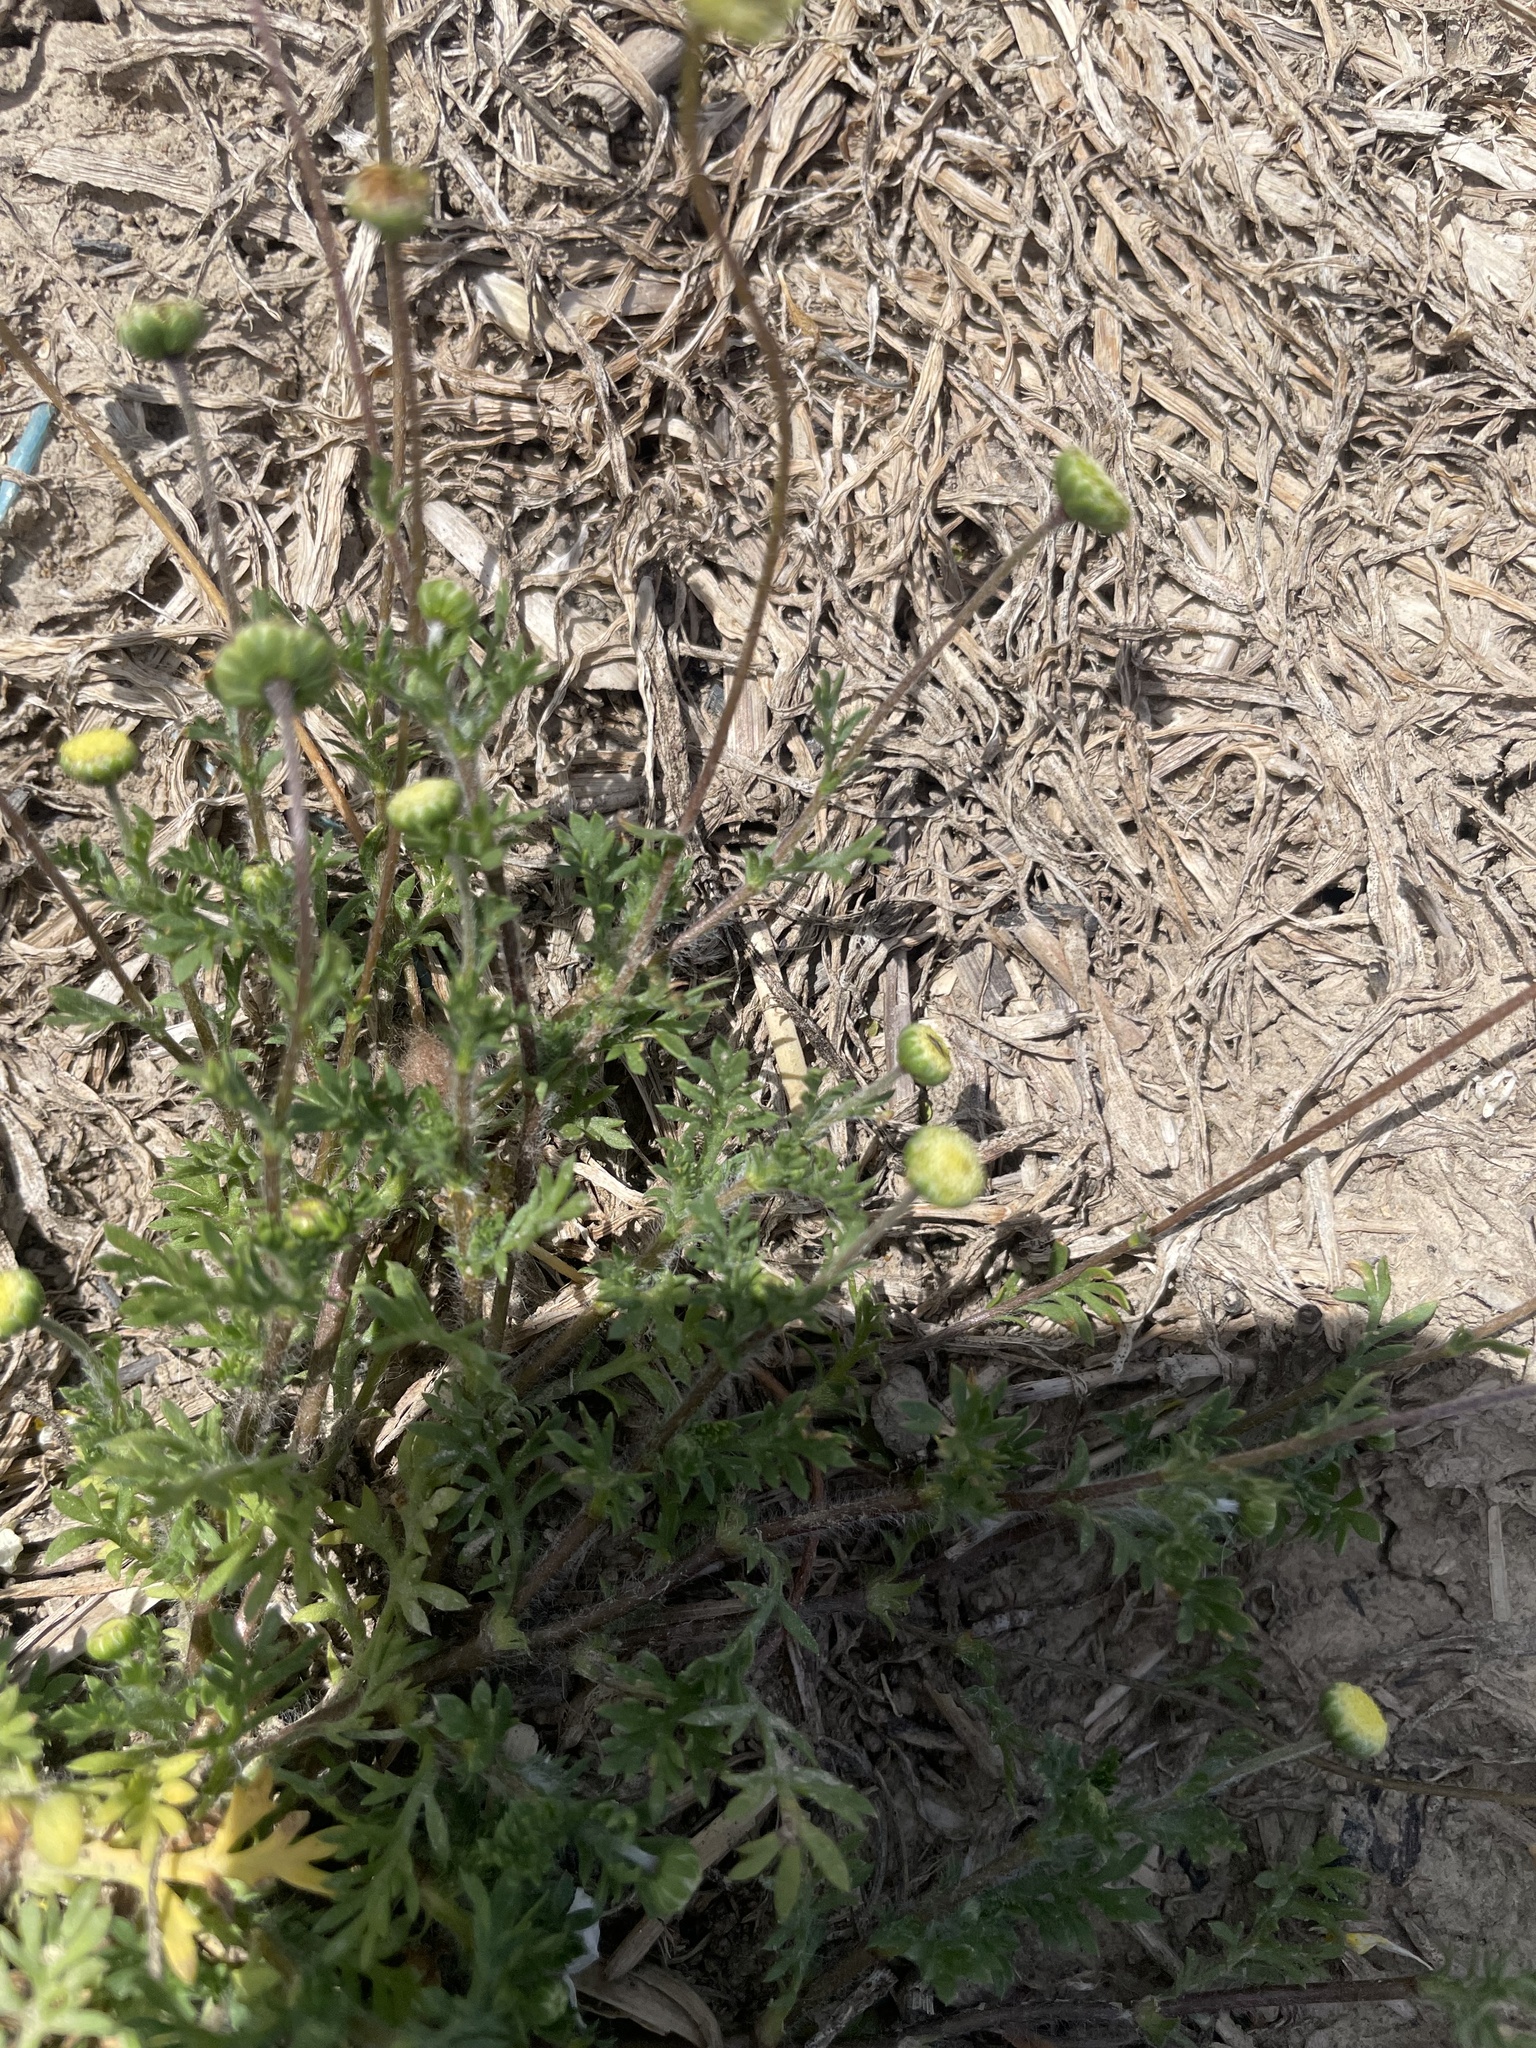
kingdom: Plantae
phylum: Tracheophyta
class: Magnoliopsida
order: Asterales
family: Asteraceae
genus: Cotula
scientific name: Cotula australis
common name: Australian waterbuttons
